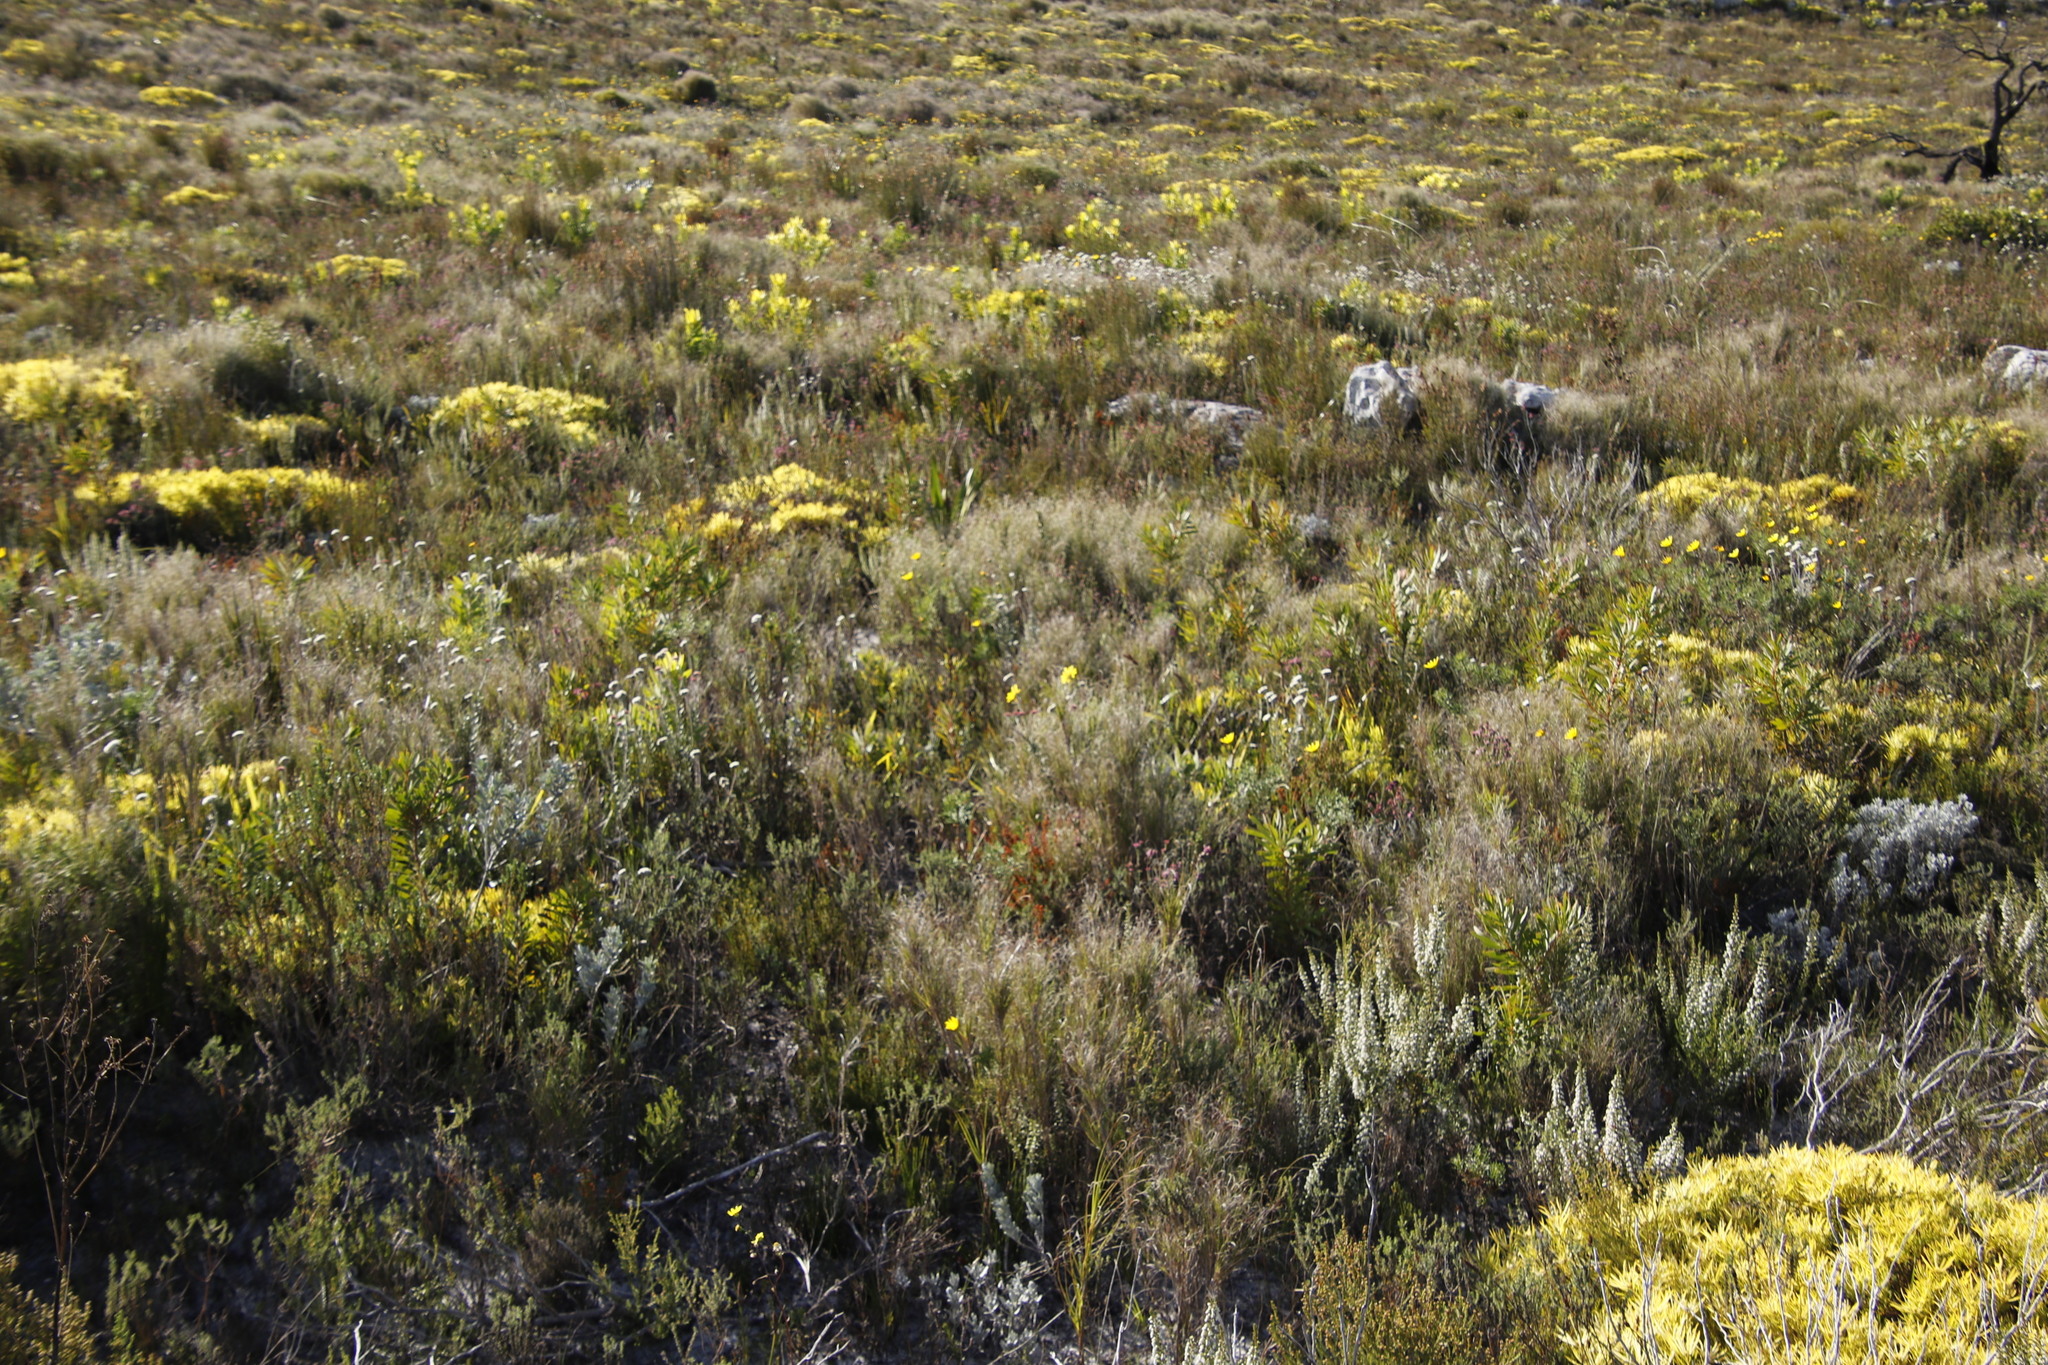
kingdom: Plantae
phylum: Tracheophyta
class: Liliopsida
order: Poales
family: Poaceae
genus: Pseudopentameris
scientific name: Pseudopentameris macrantha
